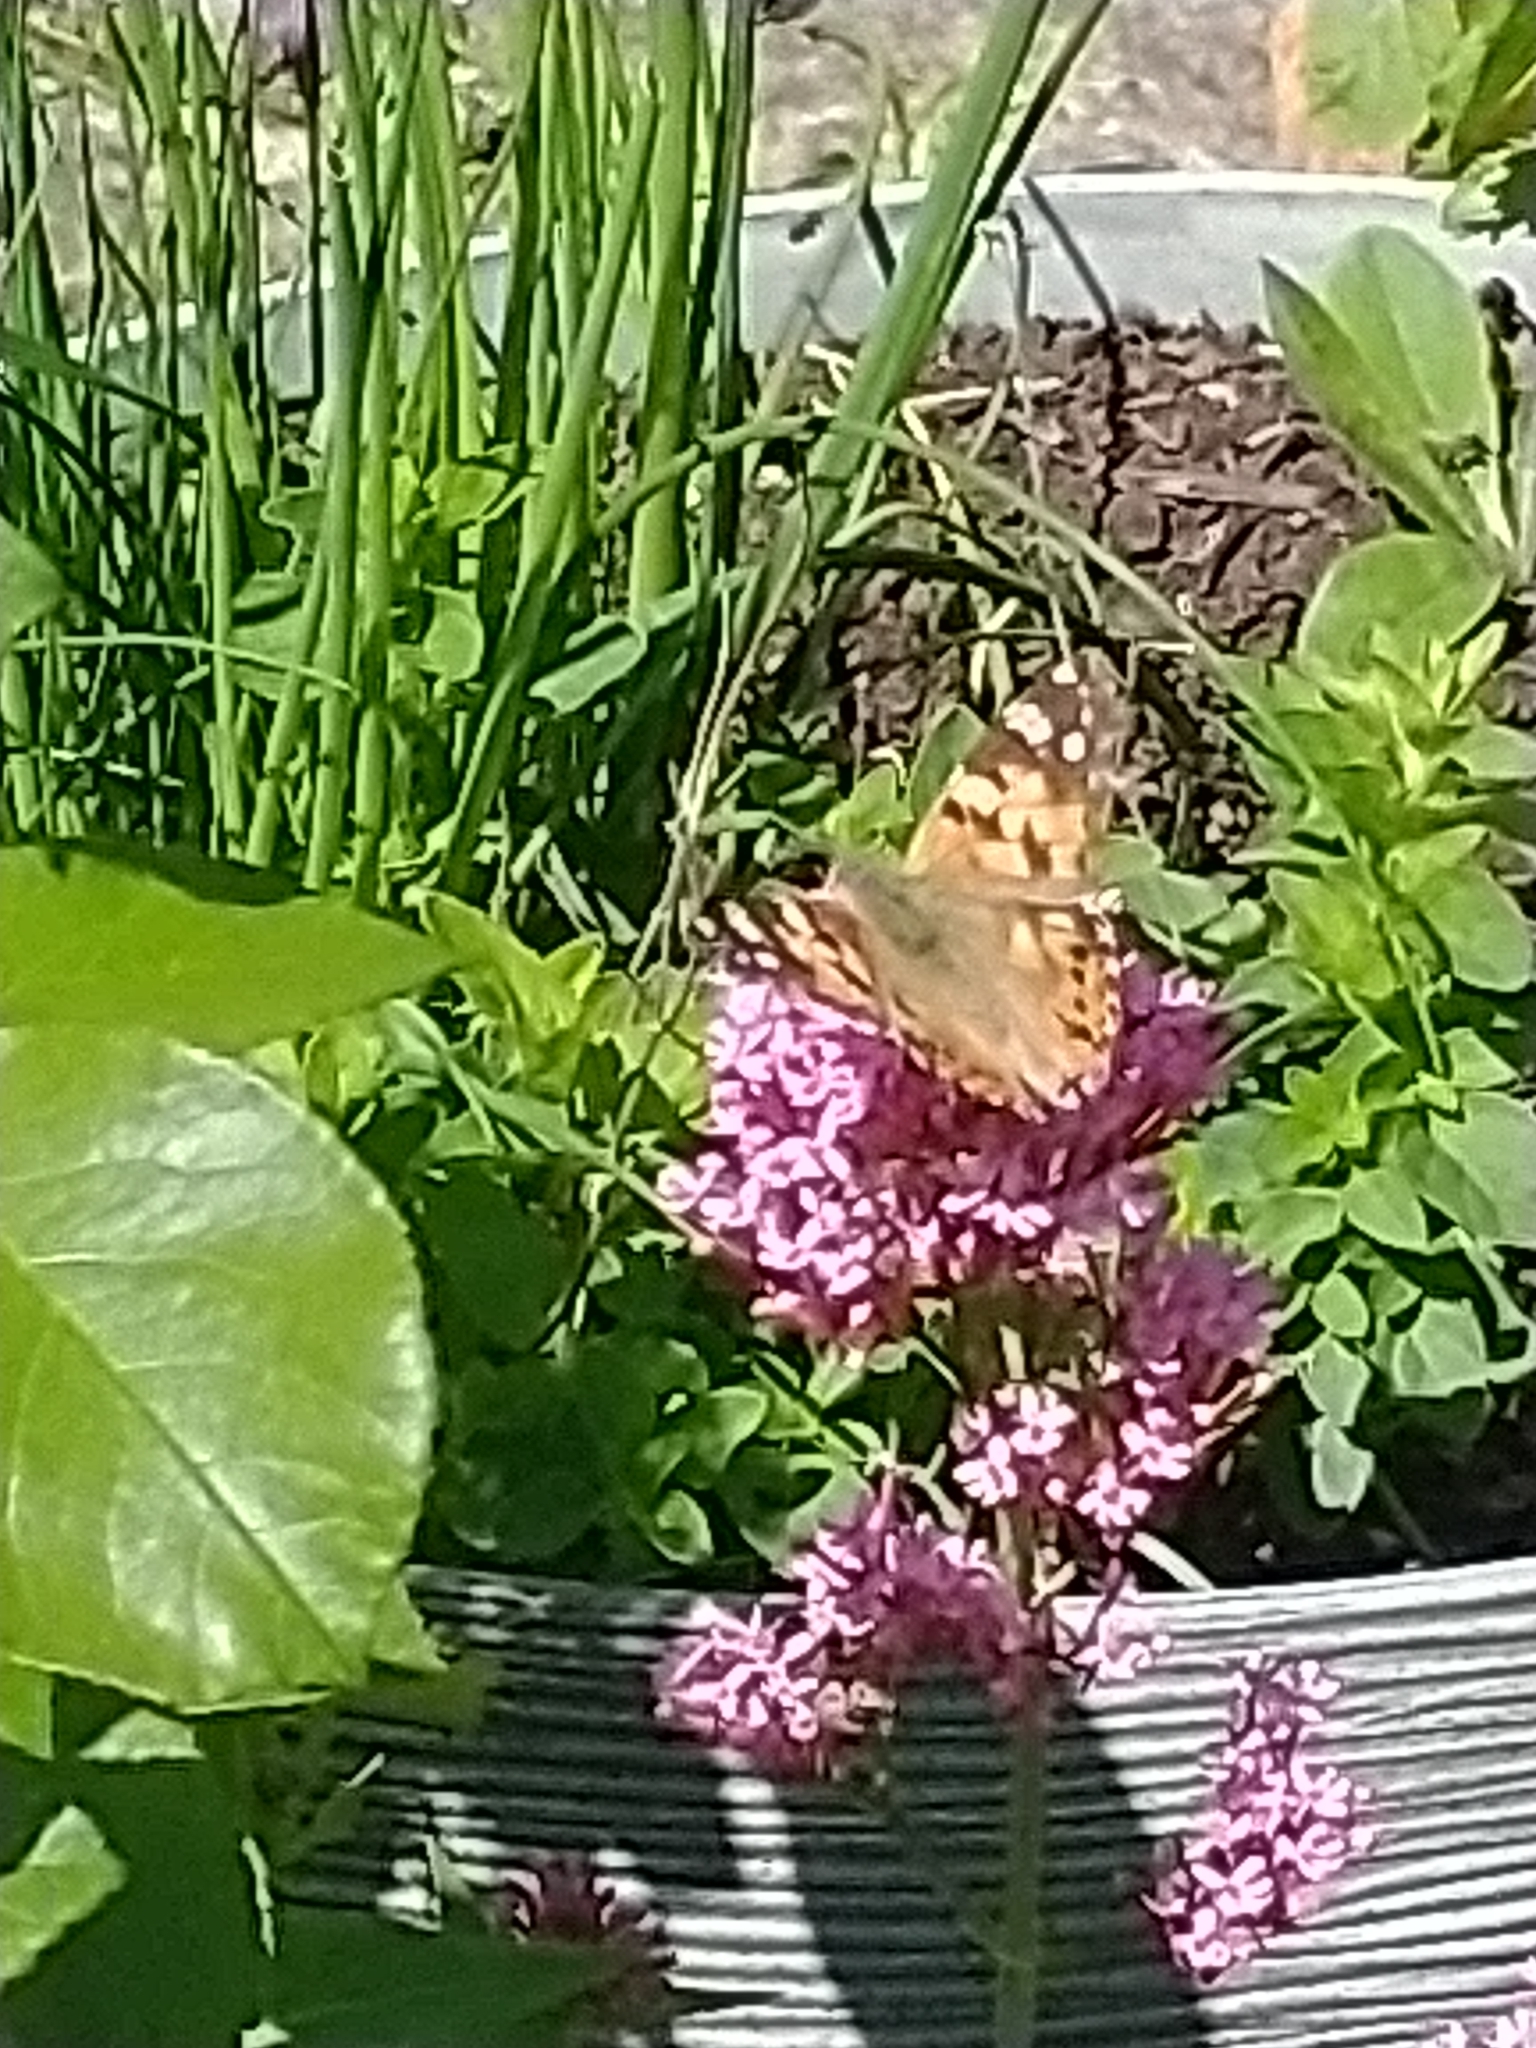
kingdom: Animalia
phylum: Arthropoda
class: Insecta
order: Lepidoptera
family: Nymphalidae
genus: Vanessa
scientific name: Vanessa cardui
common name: Painted lady
